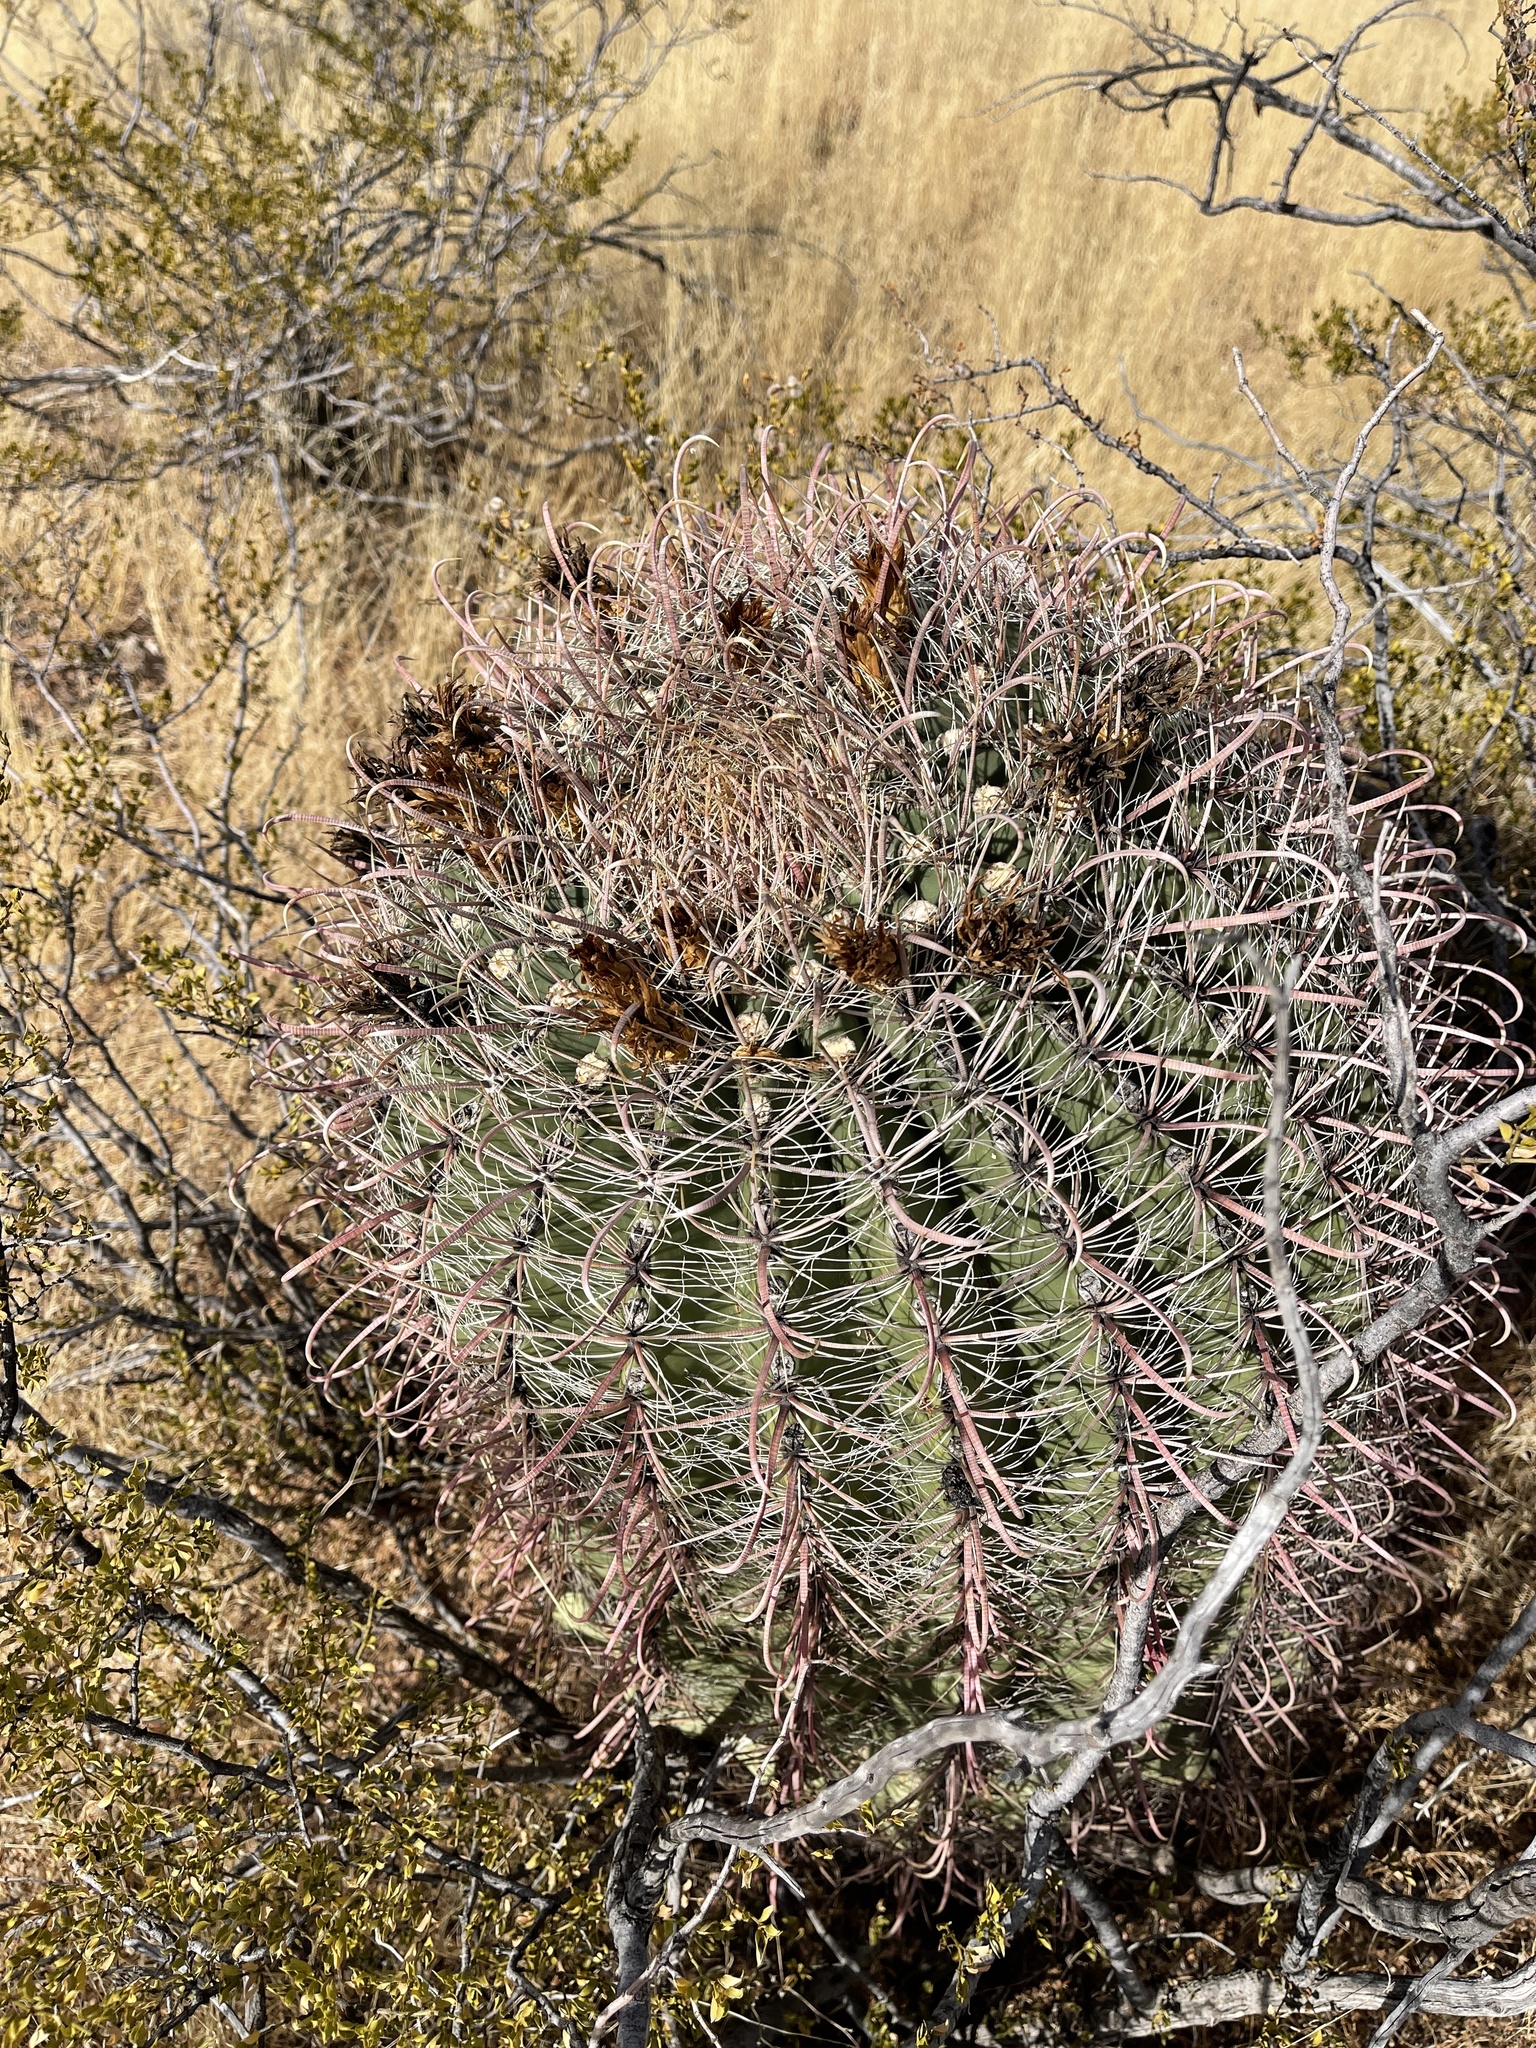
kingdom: Plantae
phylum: Tracheophyta
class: Magnoliopsida
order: Caryophyllales
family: Cactaceae
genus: Ferocactus
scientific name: Ferocactus wislizeni
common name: Candy barrel cactus
